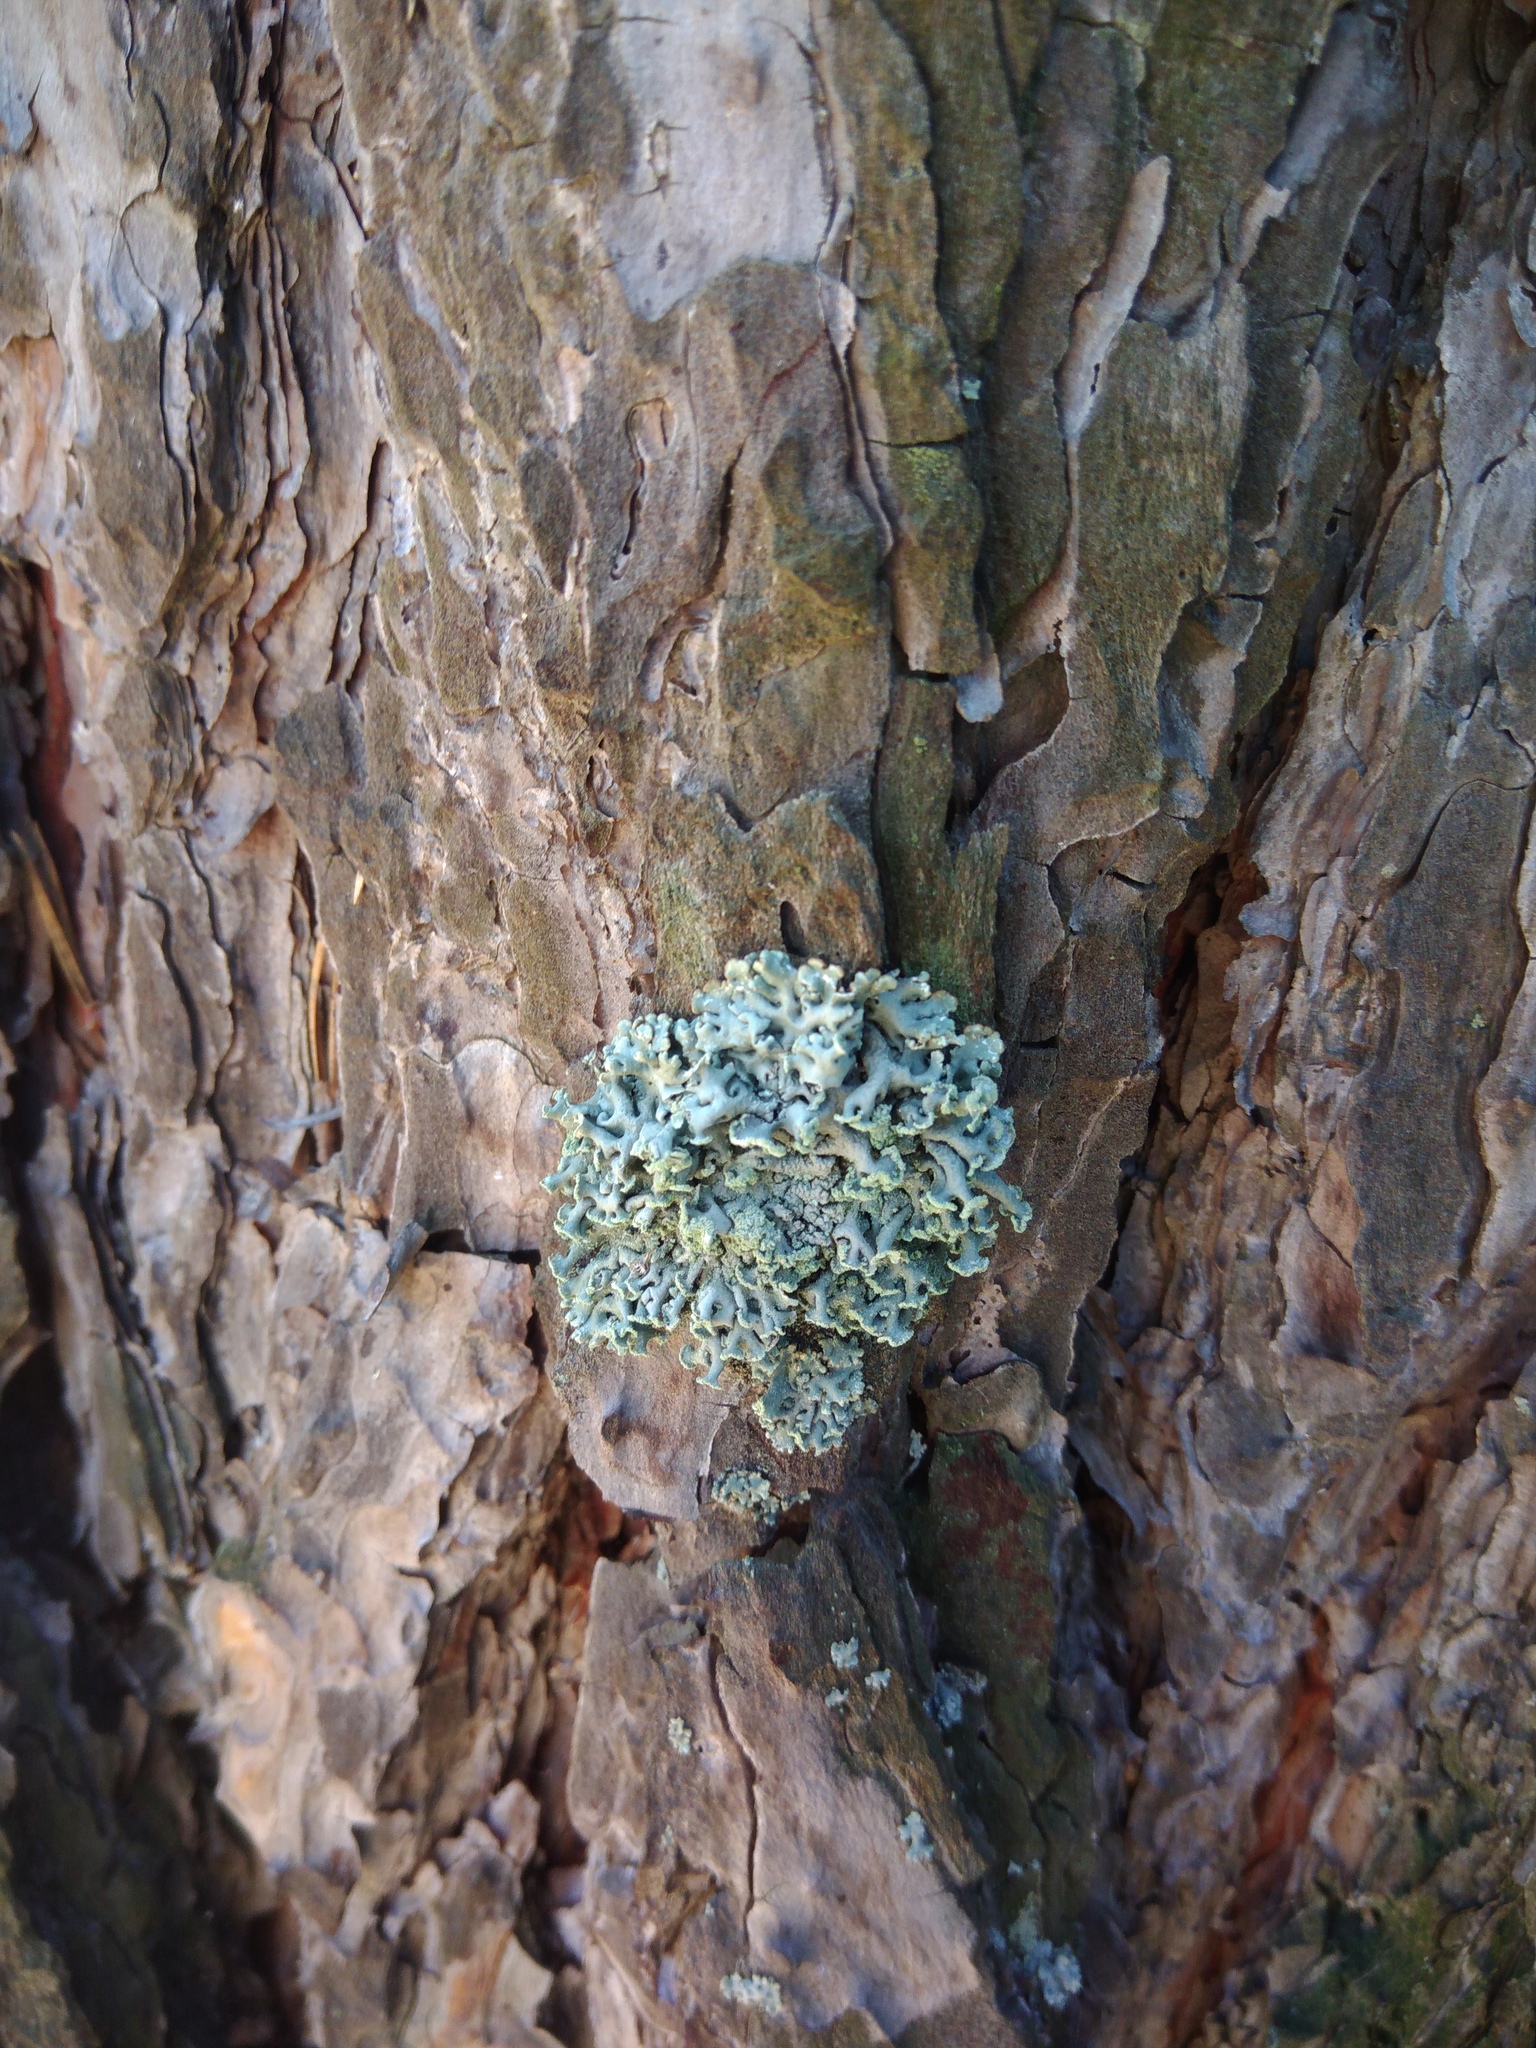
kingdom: Fungi
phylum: Ascomycota
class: Lecanoromycetes
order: Lecanorales
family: Parmeliaceae
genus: Hypogymnia
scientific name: Hypogymnia physodes
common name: Dark crottle
